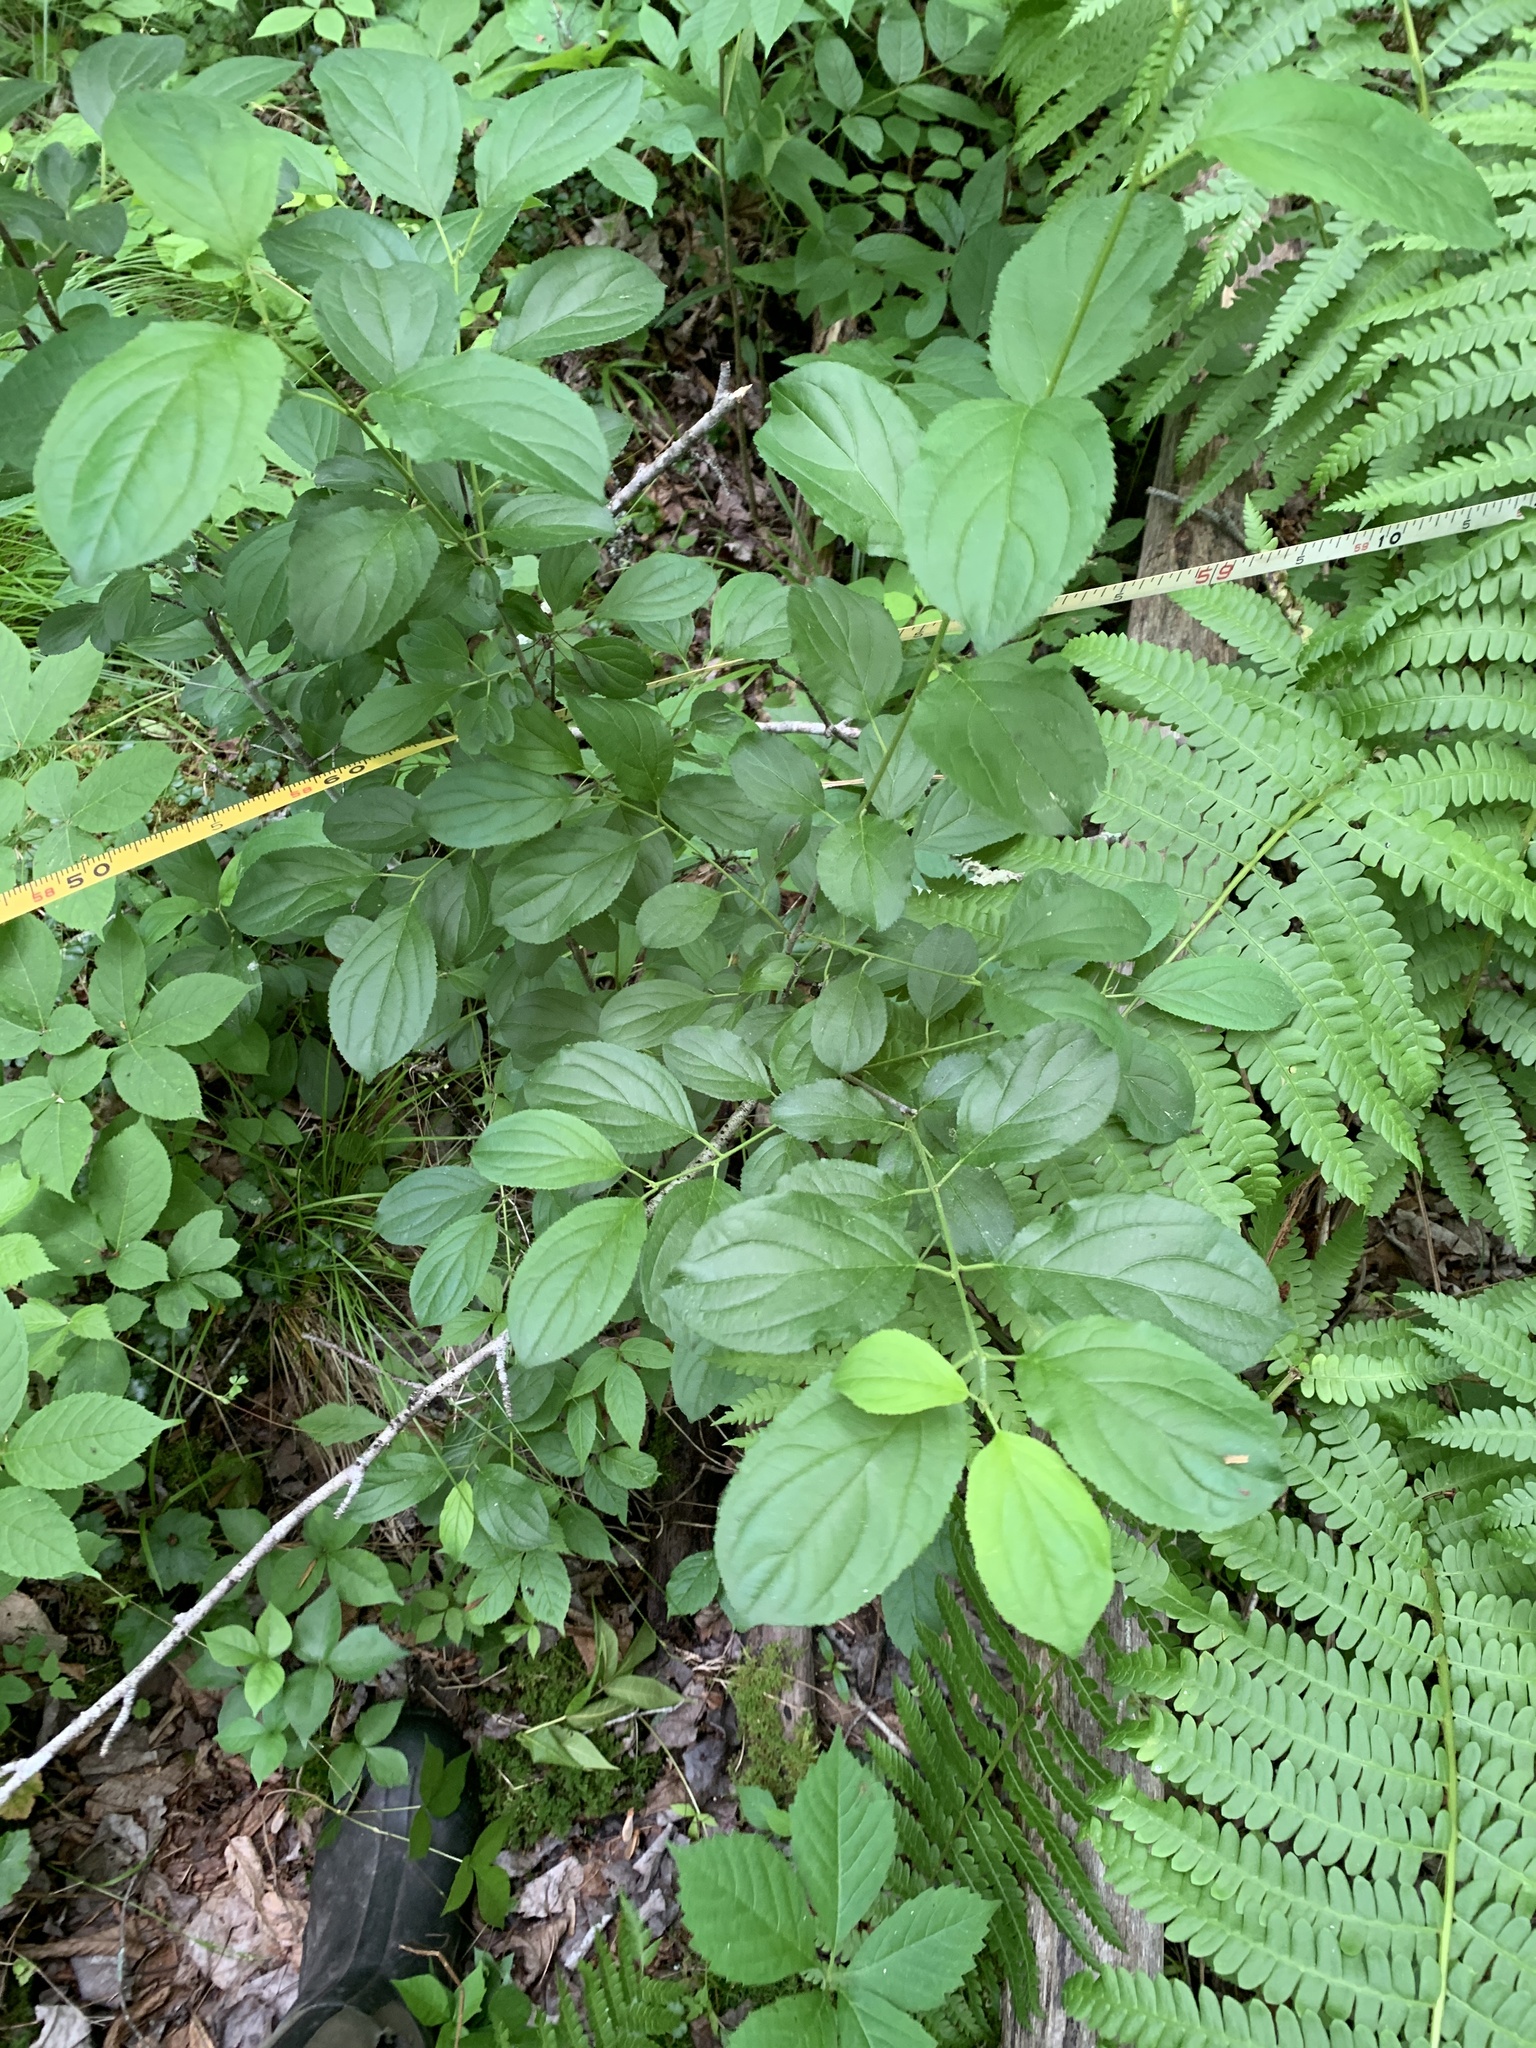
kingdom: Plantae
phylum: Tracheophyta
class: Magnoliopsida
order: Rosales
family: Rhamnaceae
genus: Rhamnus
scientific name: Rhamnus cathartica
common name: Common buckthorn
